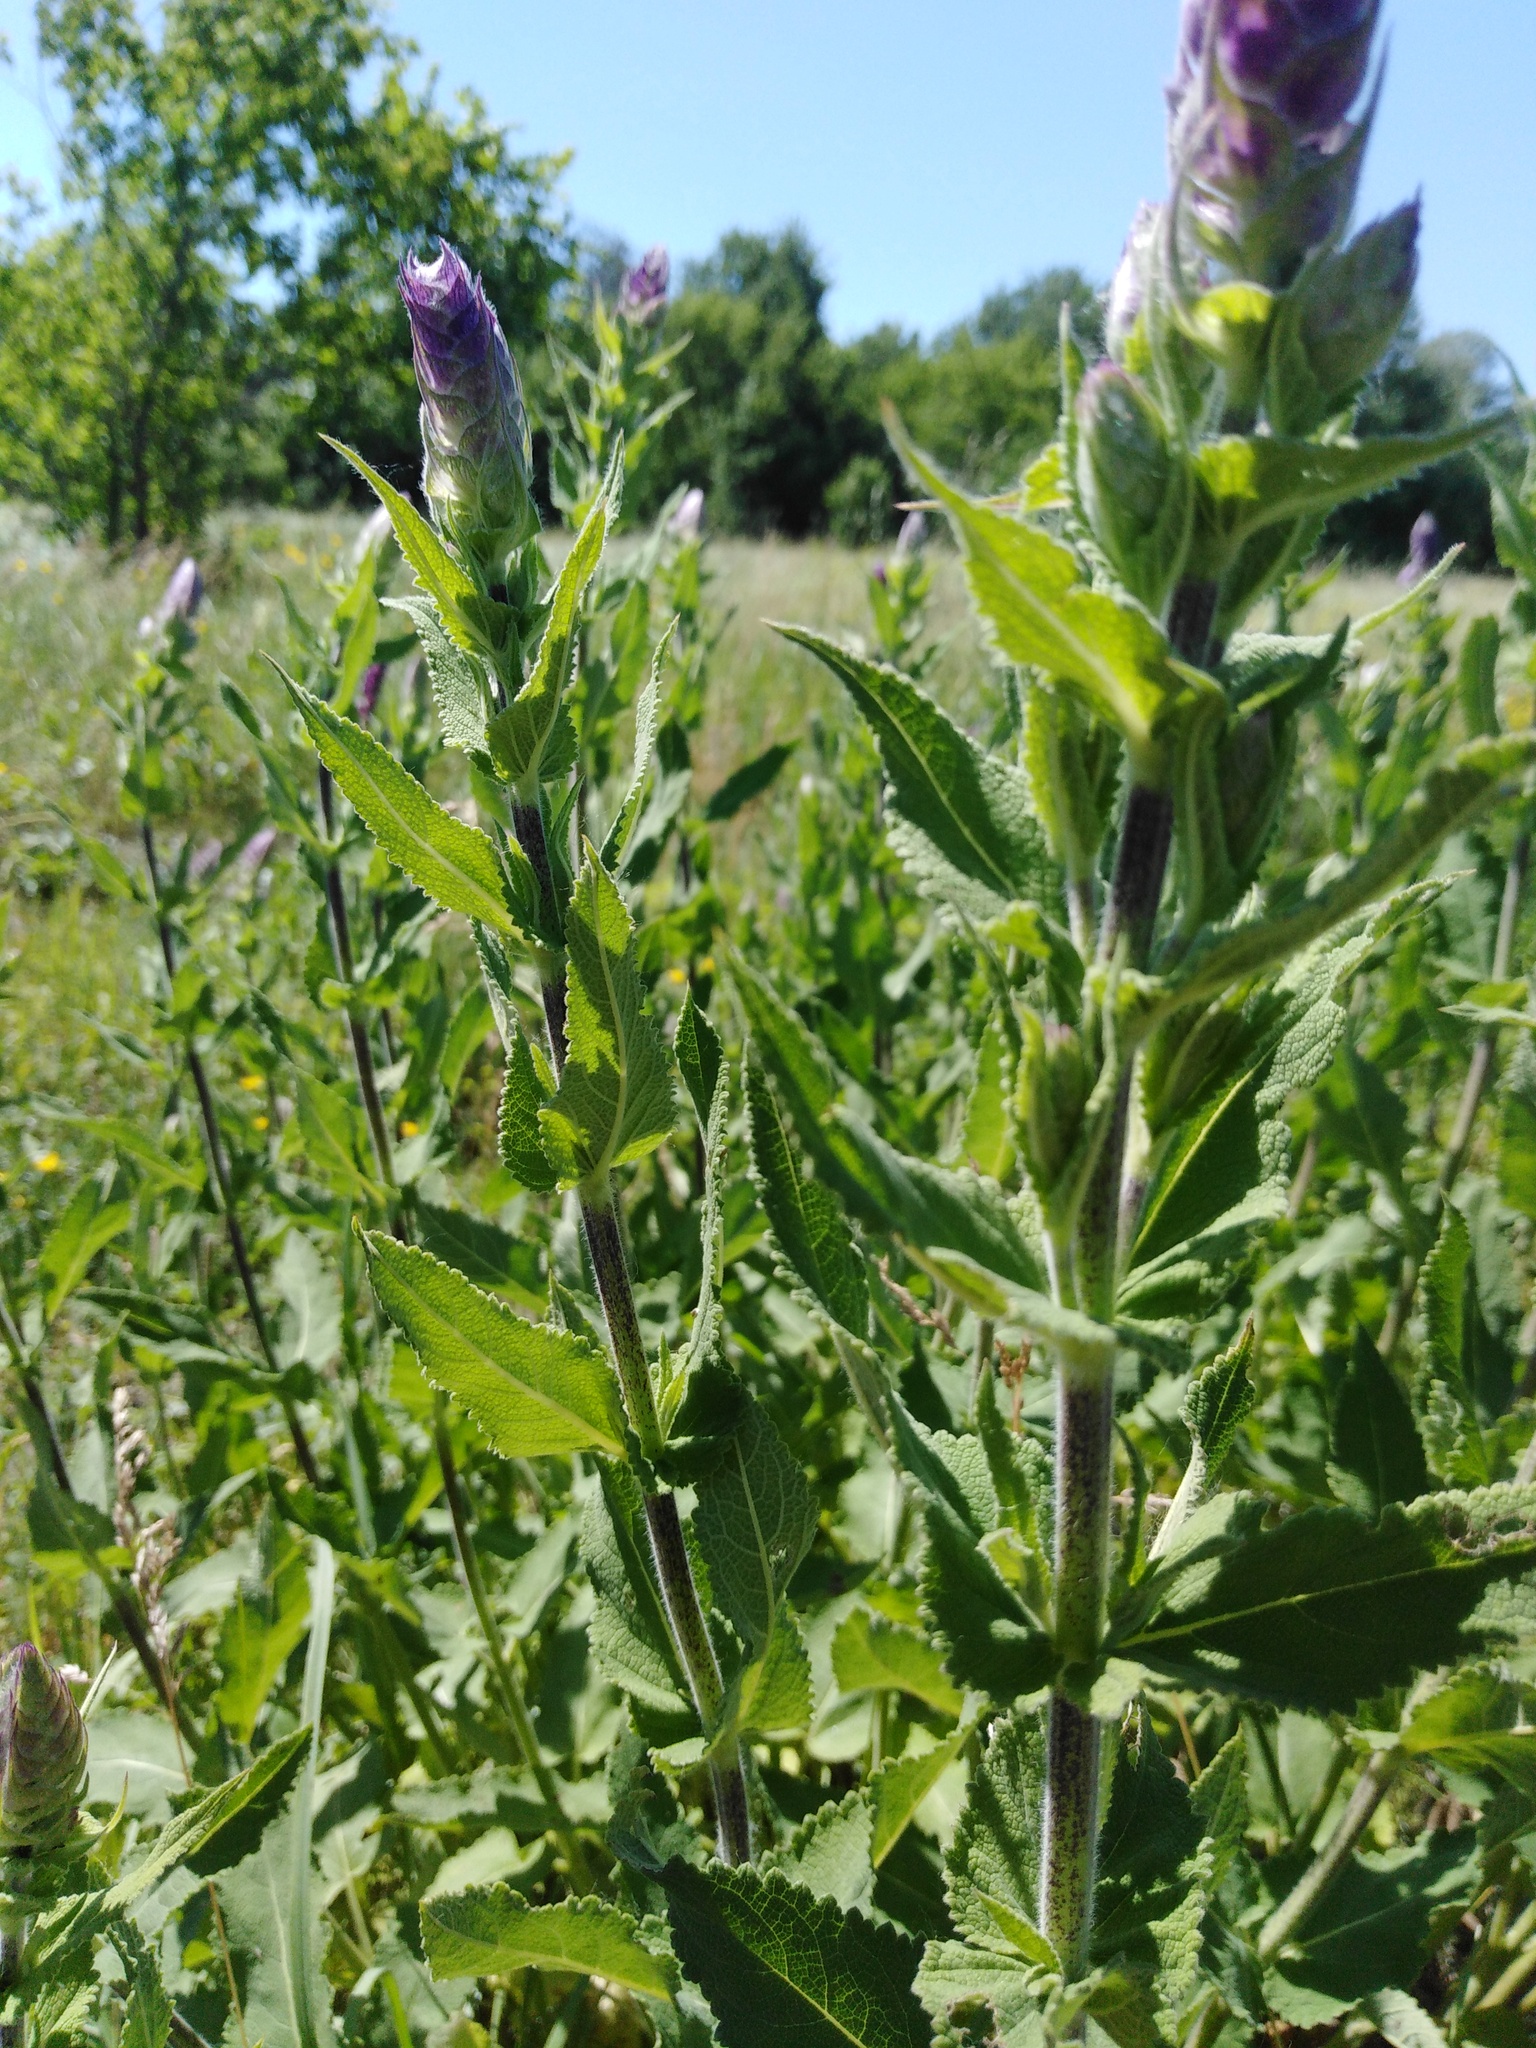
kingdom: Plantae
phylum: Tracheophyta
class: Magnoliopsida
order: Lamiales
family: Lamiaceae
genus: Salvia
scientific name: Salvia nemorosa
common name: Balkan clary
